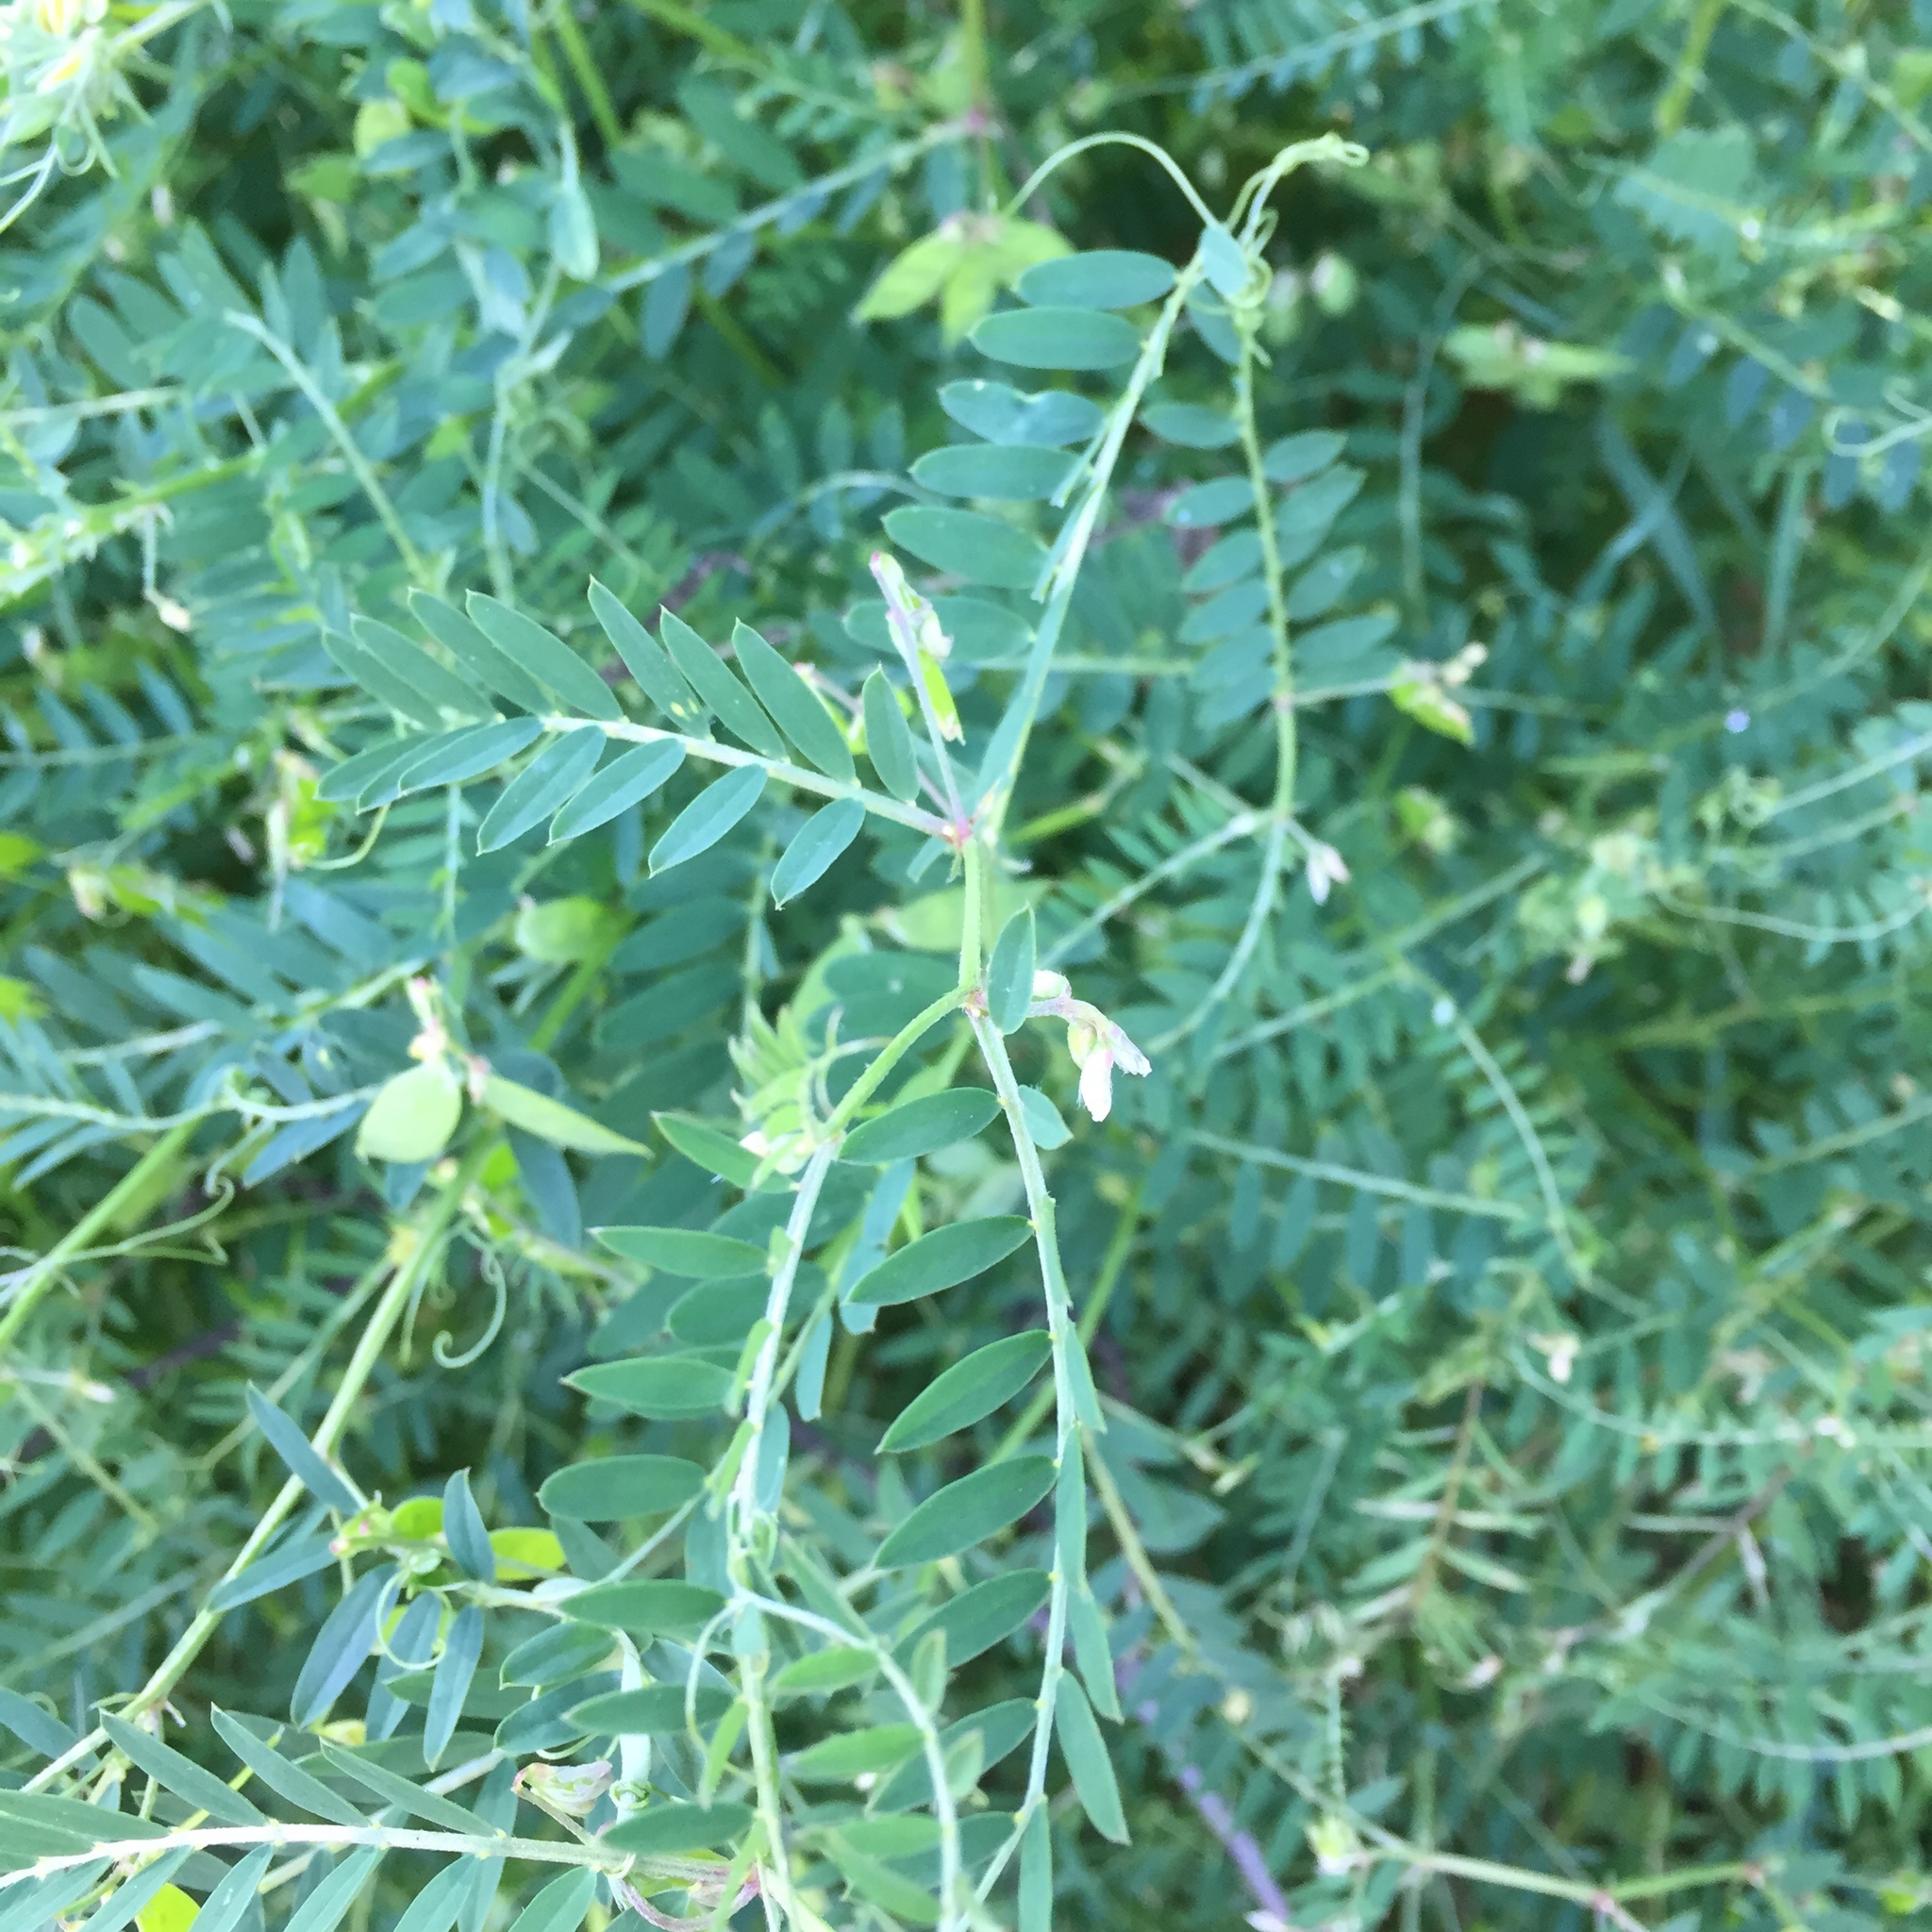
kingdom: Plantae
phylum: Tracheophyta
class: Magnoliopsida
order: Fabales
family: Fabaceae
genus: Vicia
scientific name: Vicia tetrasperma
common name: Smooth tare
